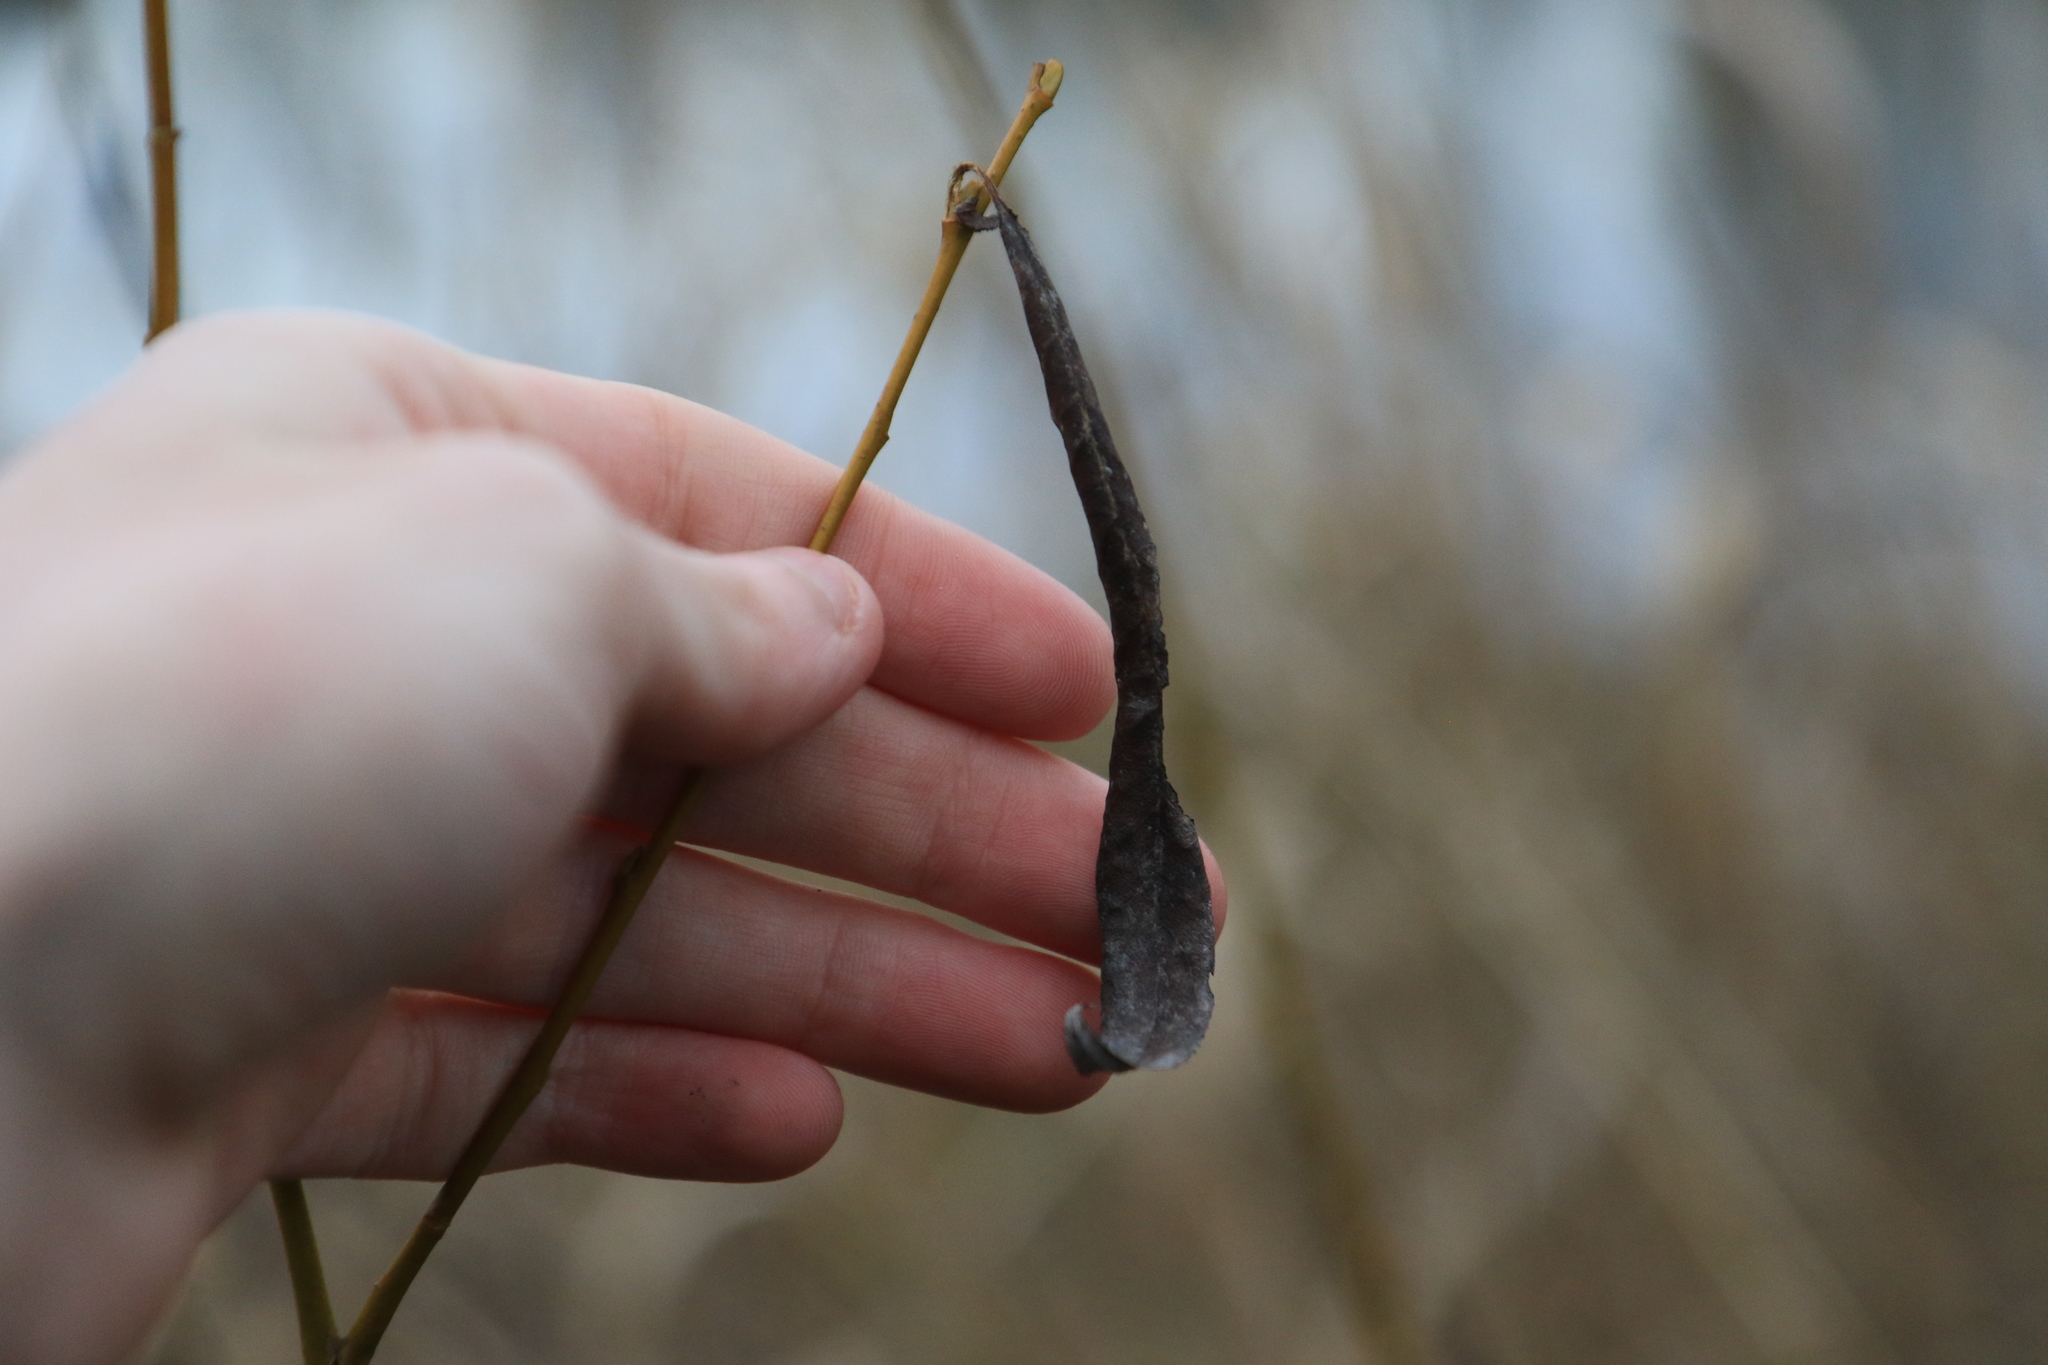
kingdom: Plantae
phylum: Tracheophyta
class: Magnoliopsida
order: Malpighiales
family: Salicaceae
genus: Salix
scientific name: Salix
